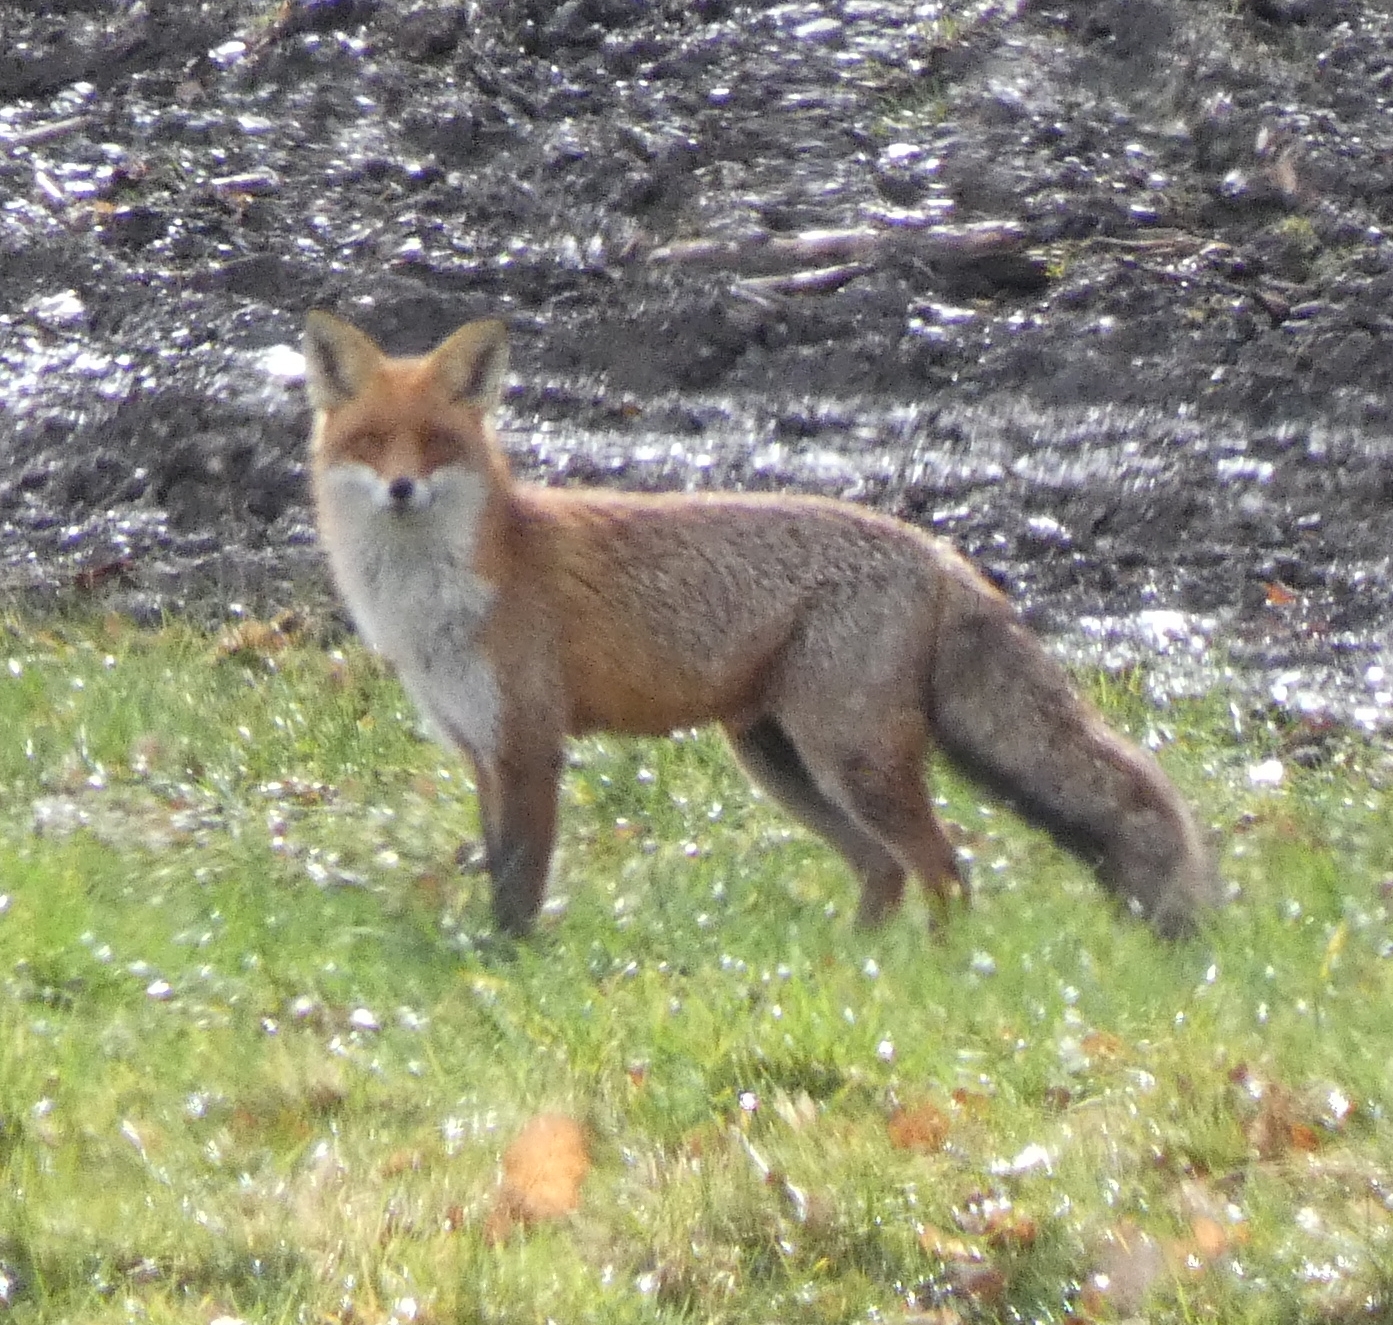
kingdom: Animalia
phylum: Chordata
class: Mammalia
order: Carnivora
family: Canidae
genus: Vulpes
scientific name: Vulpes vulpes
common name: Red fox
